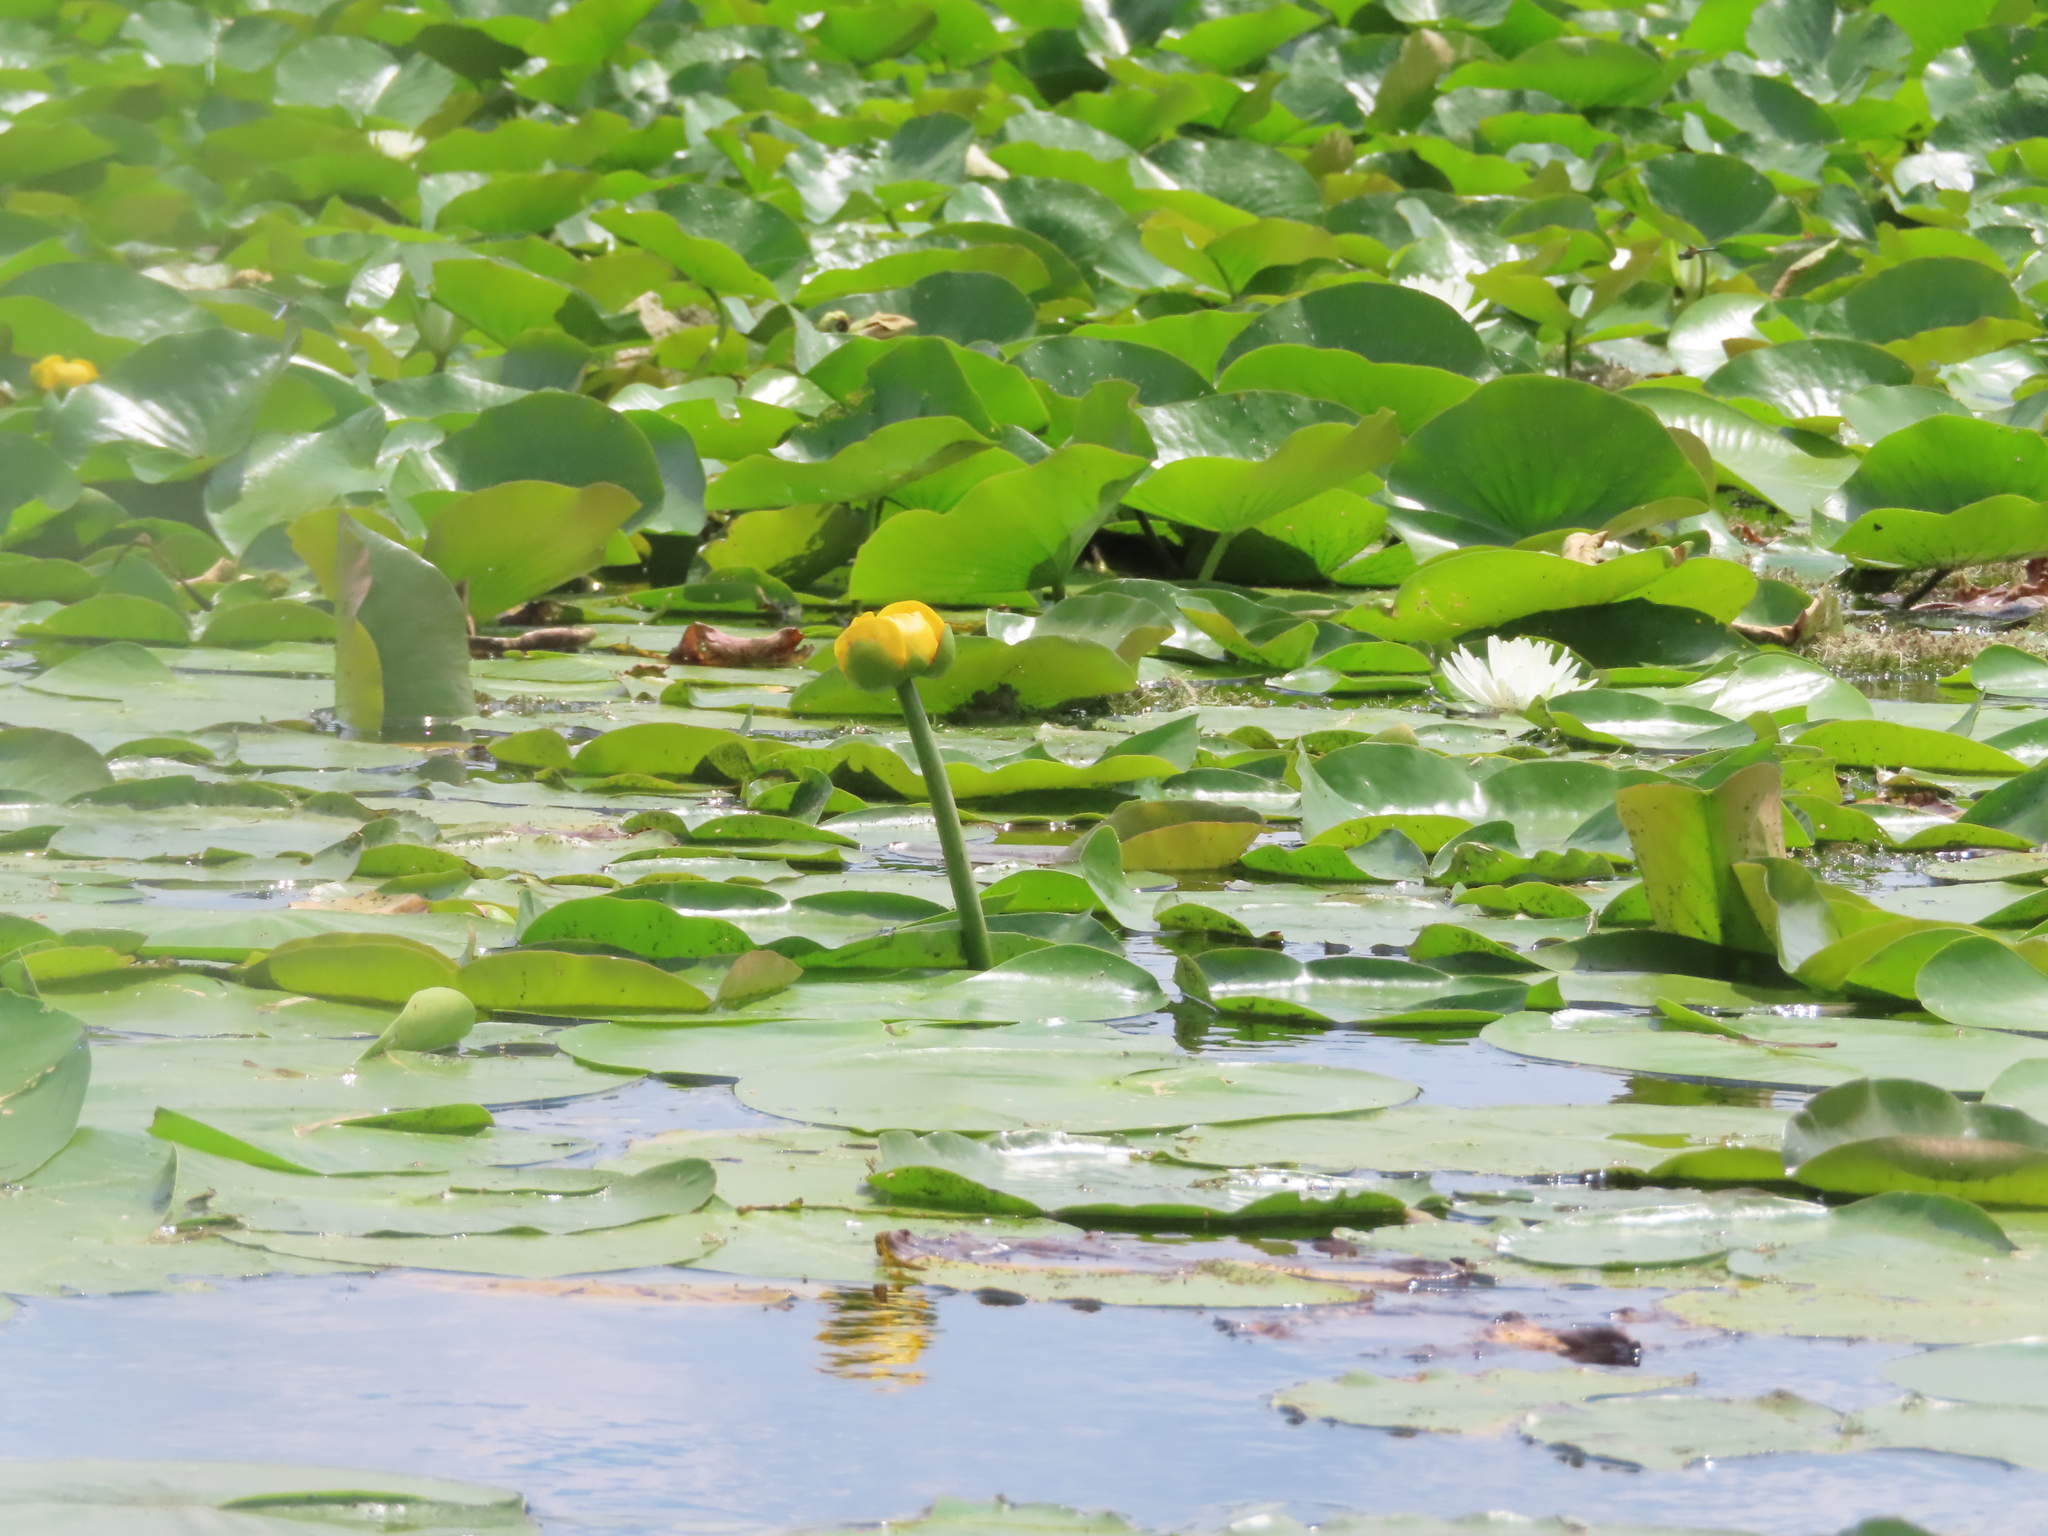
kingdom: Plantae
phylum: Tracheophyta
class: Magnoliopsida
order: Nymphaeales
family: Nymphaeaceae
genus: Nuphar
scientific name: Nuphar variegata
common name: Beaver-root
